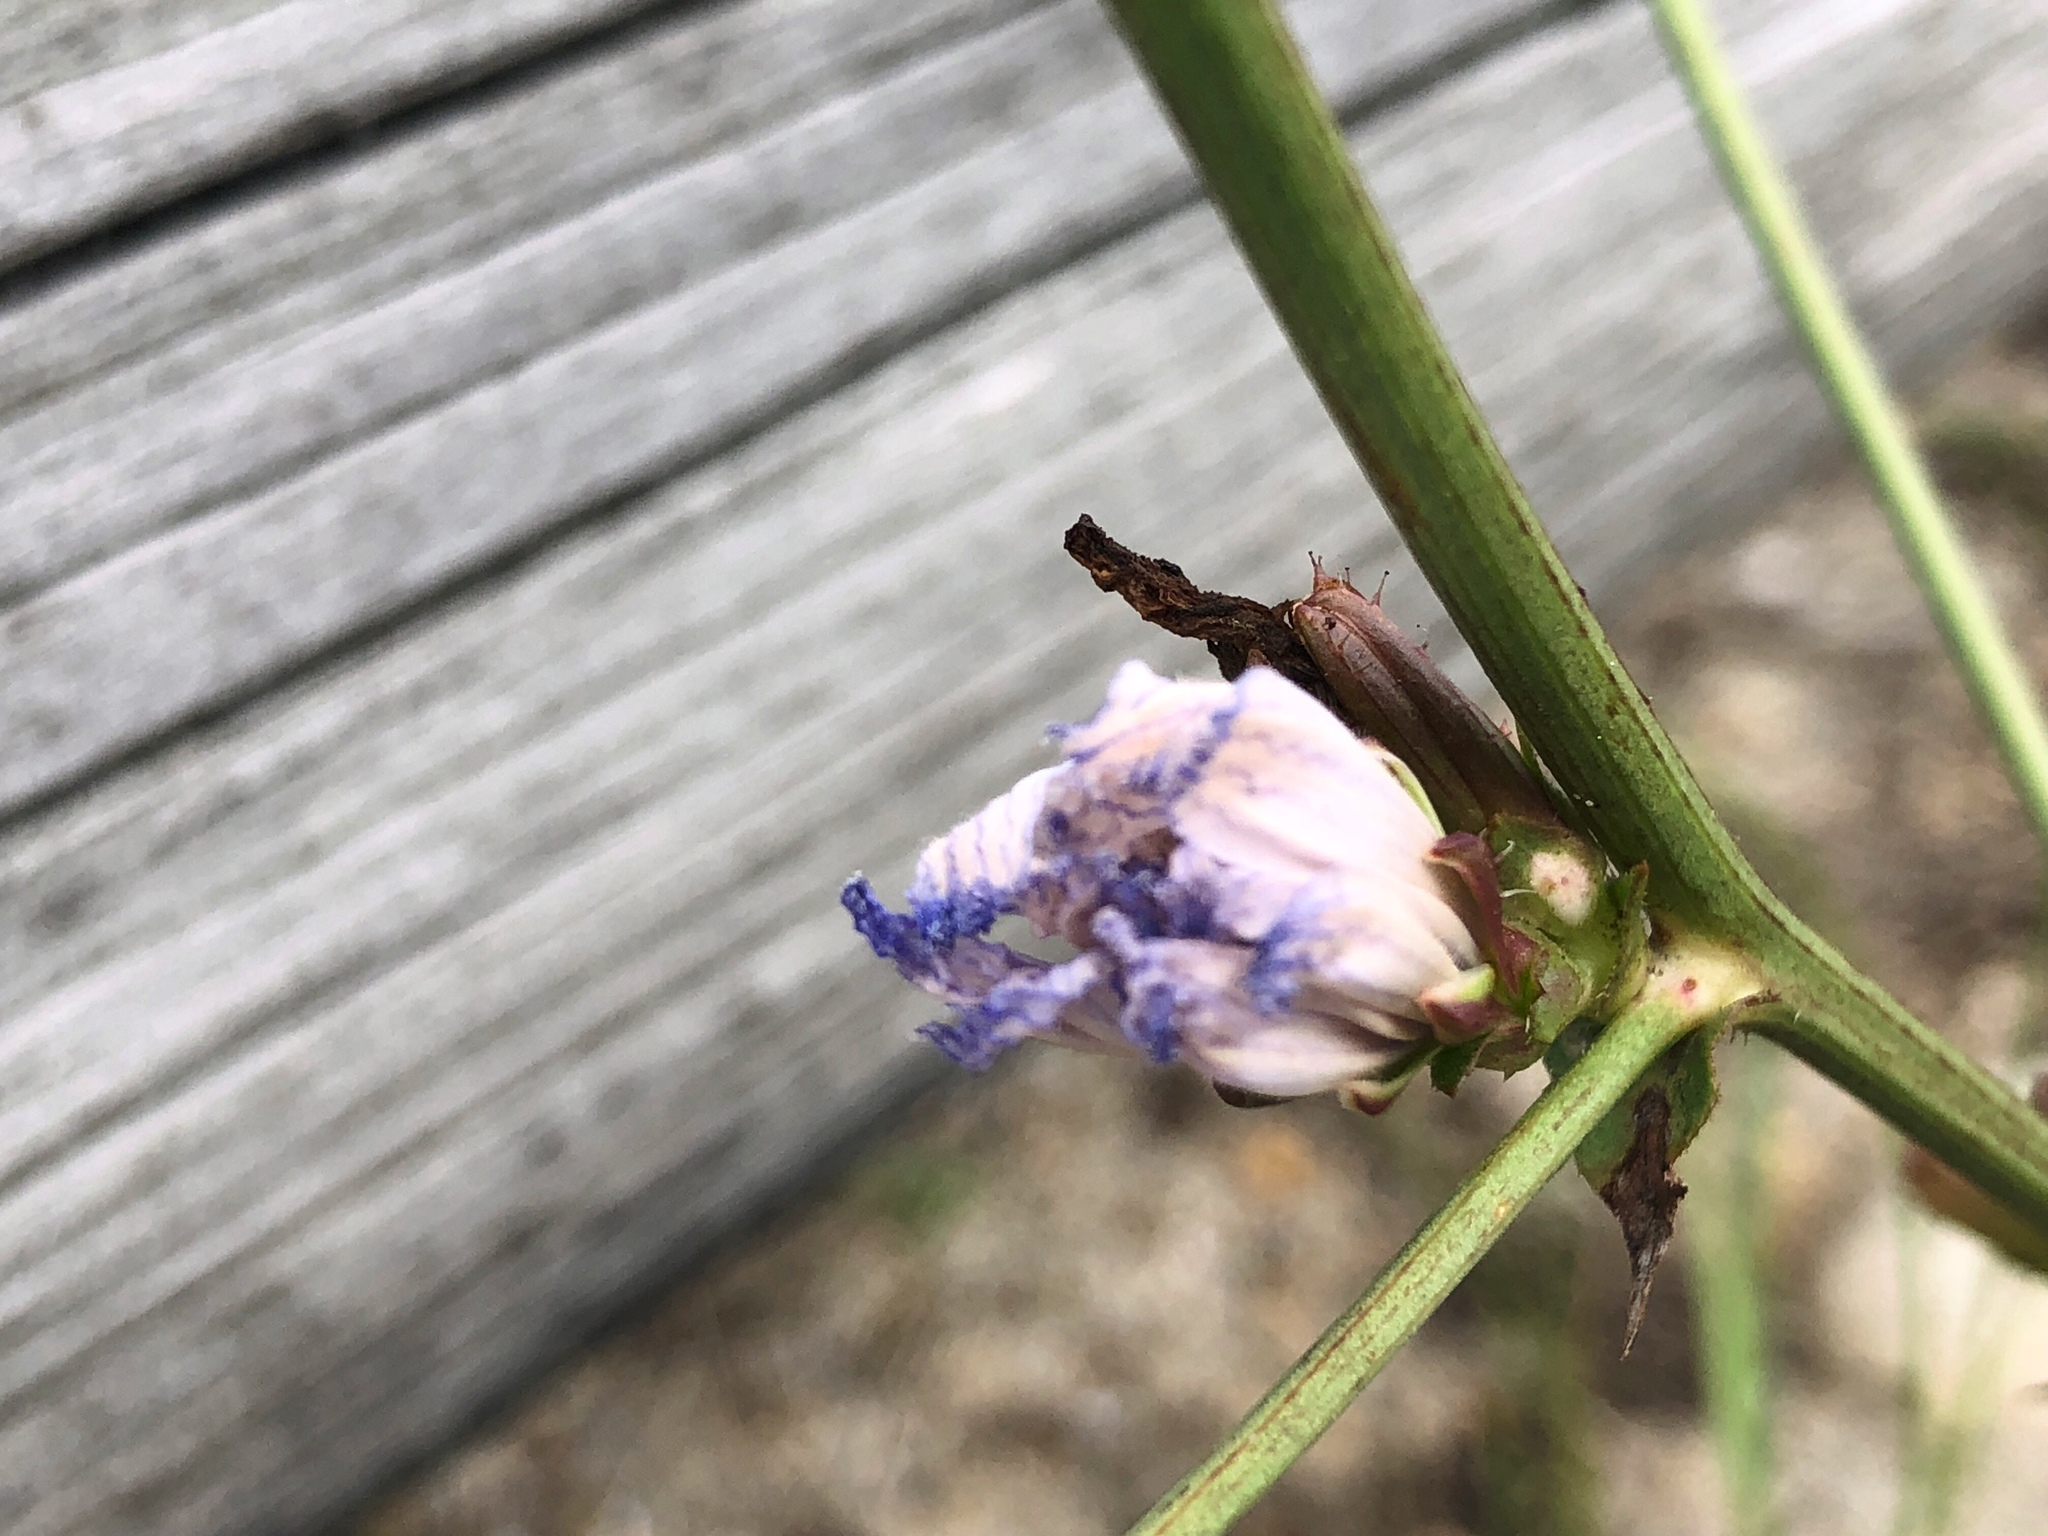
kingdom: Plantae
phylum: Tracheophyta
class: Magnoliopsida
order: Asterales
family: Asteraceae
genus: Cichorium
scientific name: Cichorium intybus
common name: Chicory
